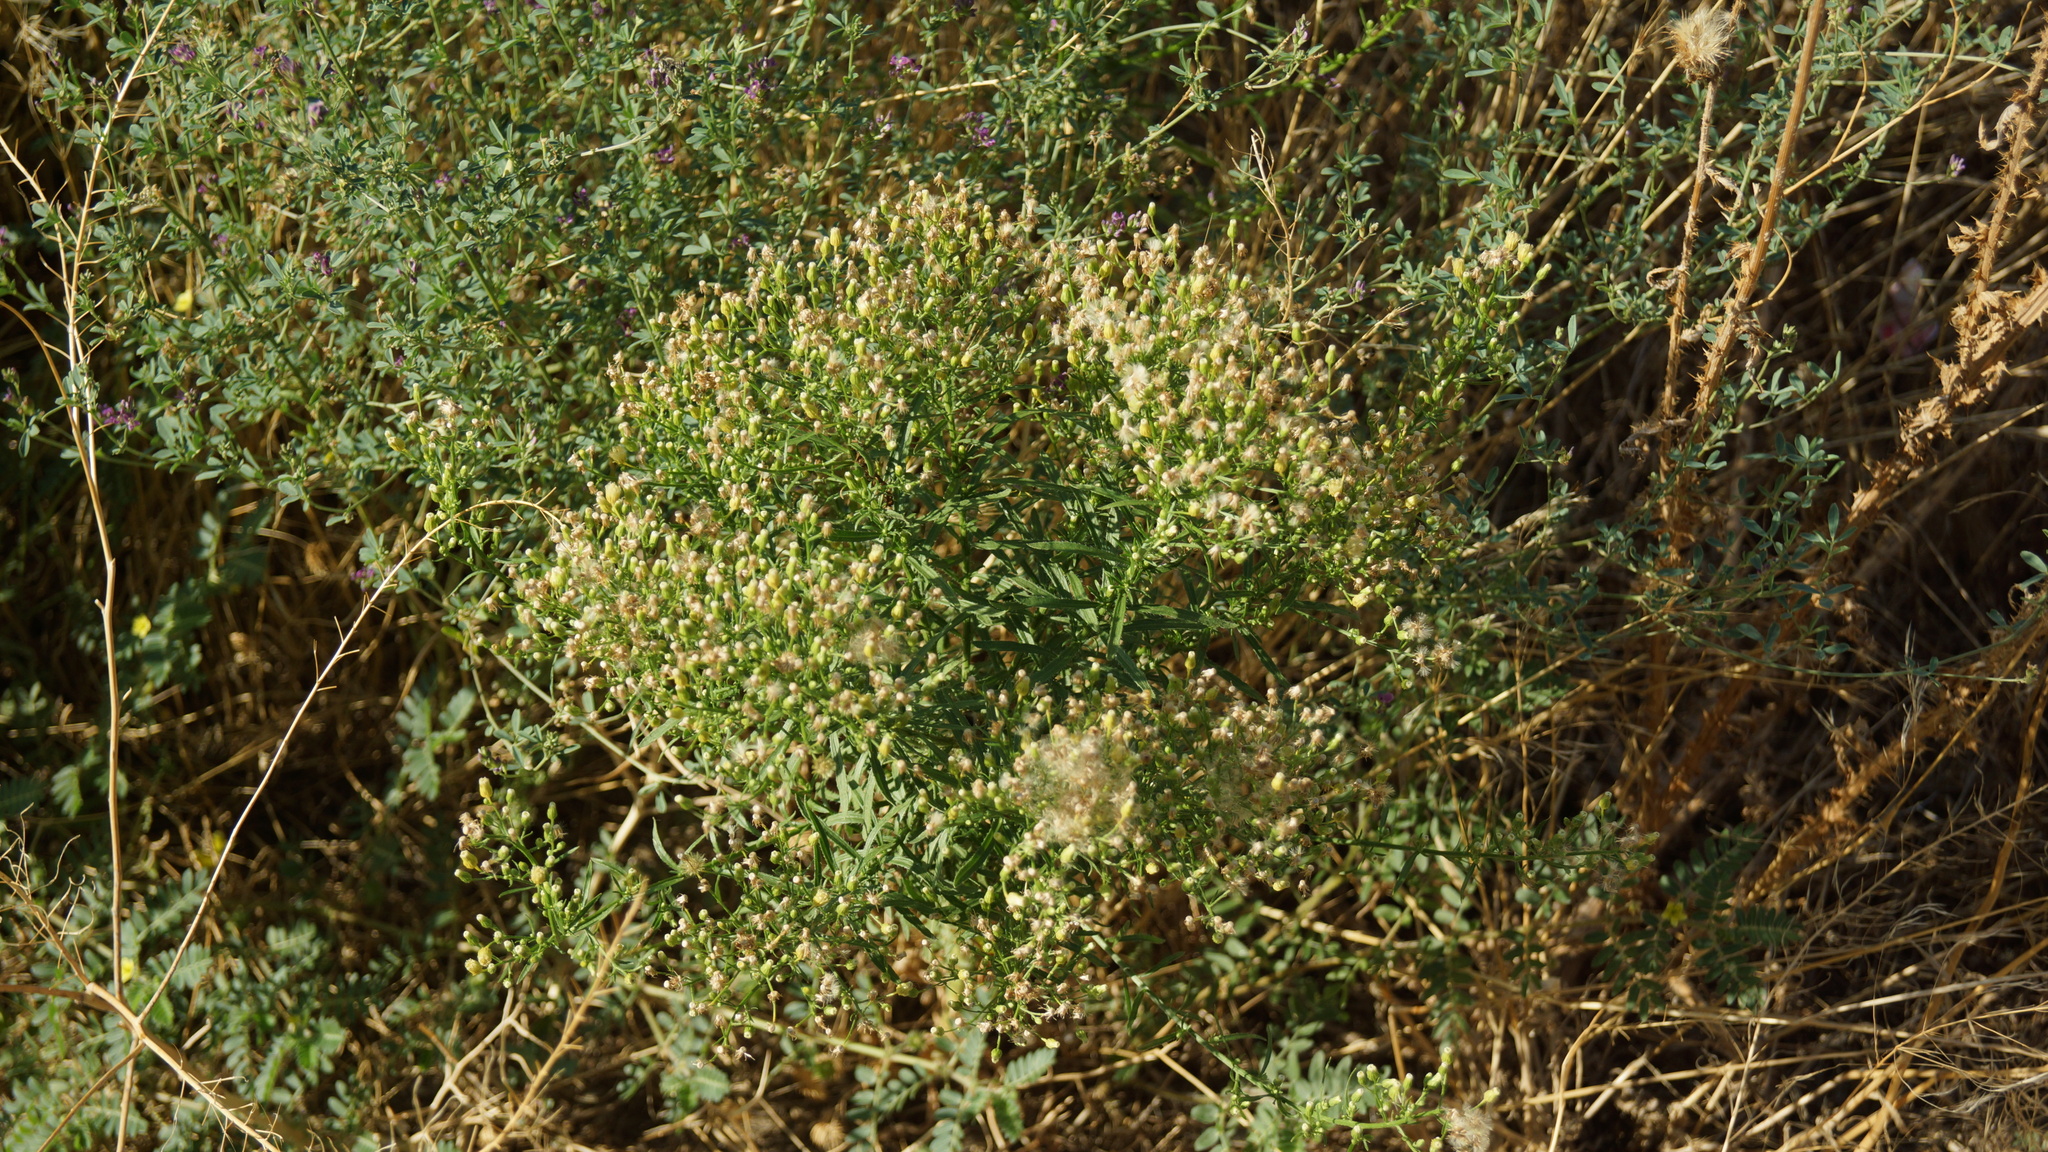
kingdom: Plantae
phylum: Tracheophyta
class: Magnoliopsida
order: Asterales
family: Asteraceae
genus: Erigeron
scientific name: Erigeron canadensis
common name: Canadian fleabane
